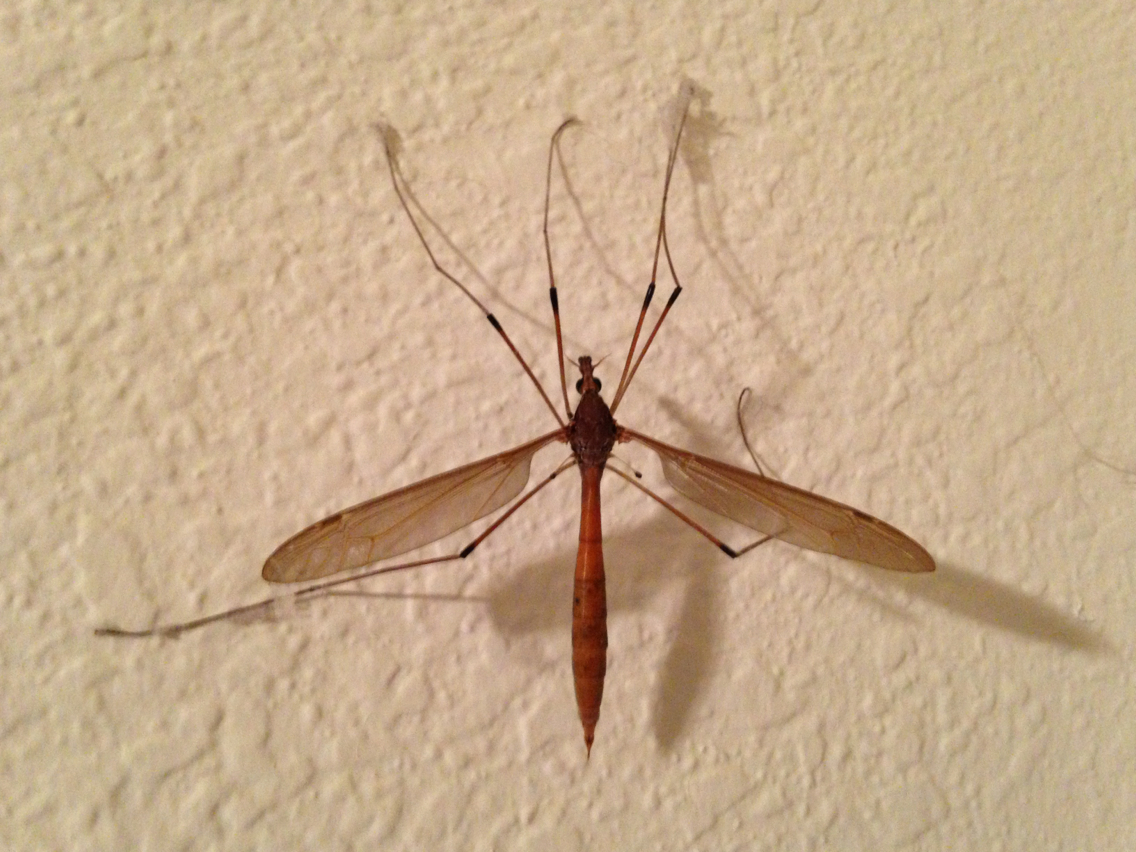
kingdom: Animalia
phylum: Arthropoda
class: Insecta
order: Diptera
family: Tipulidae
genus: Holorusia
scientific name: Holorusia hespera
